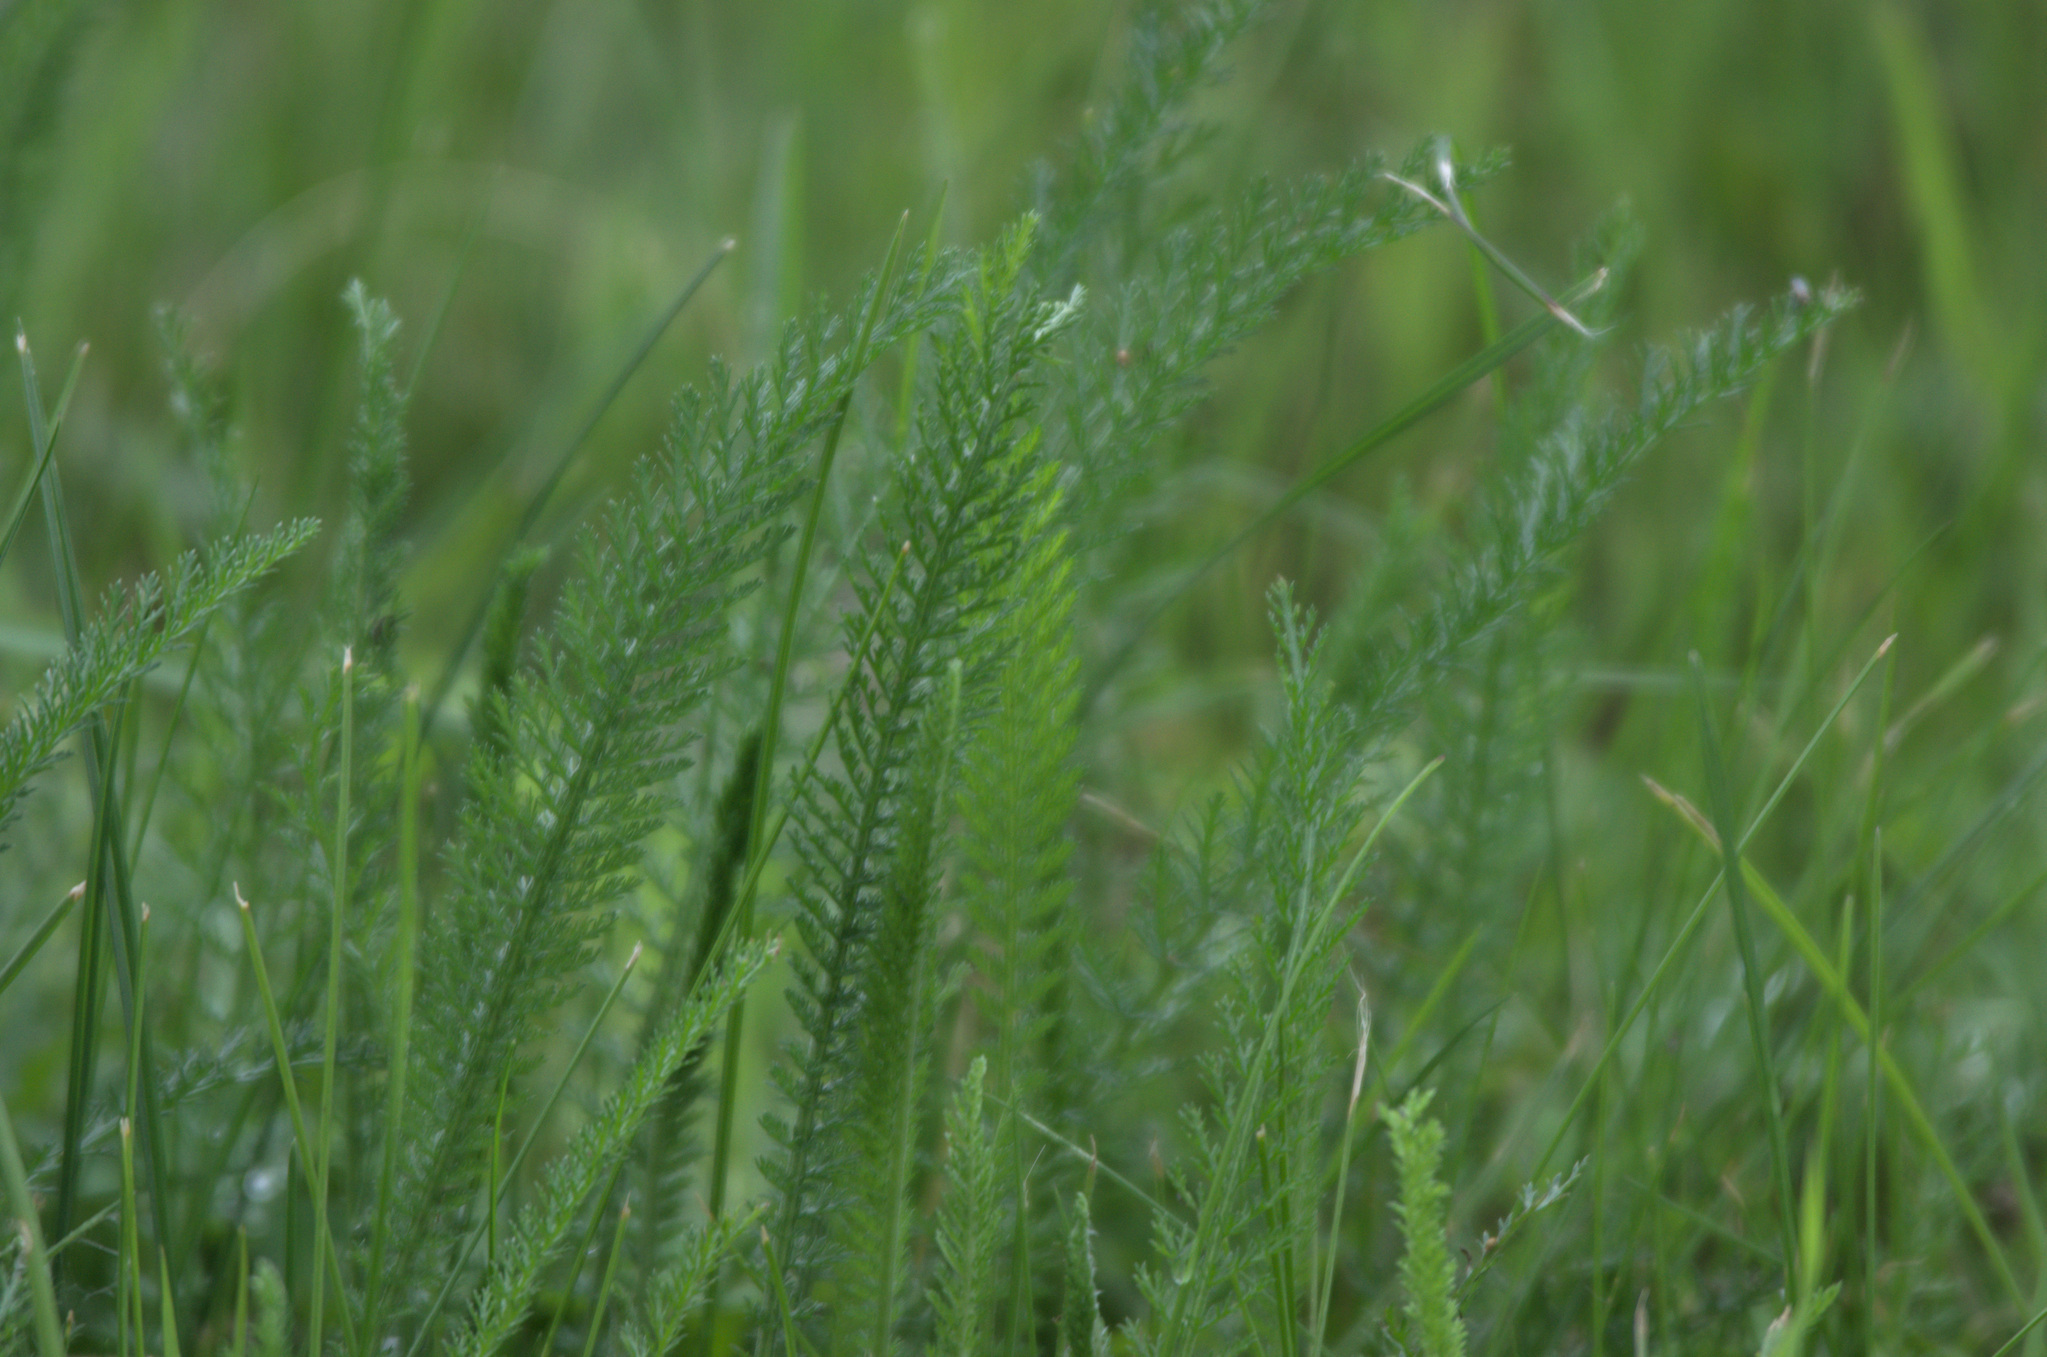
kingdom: Plantae
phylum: Tracheophyta
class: Magnoliopsida
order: Asterales
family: Asteraceae
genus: Achillea
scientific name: Achillea millefolium
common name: Yarrow
